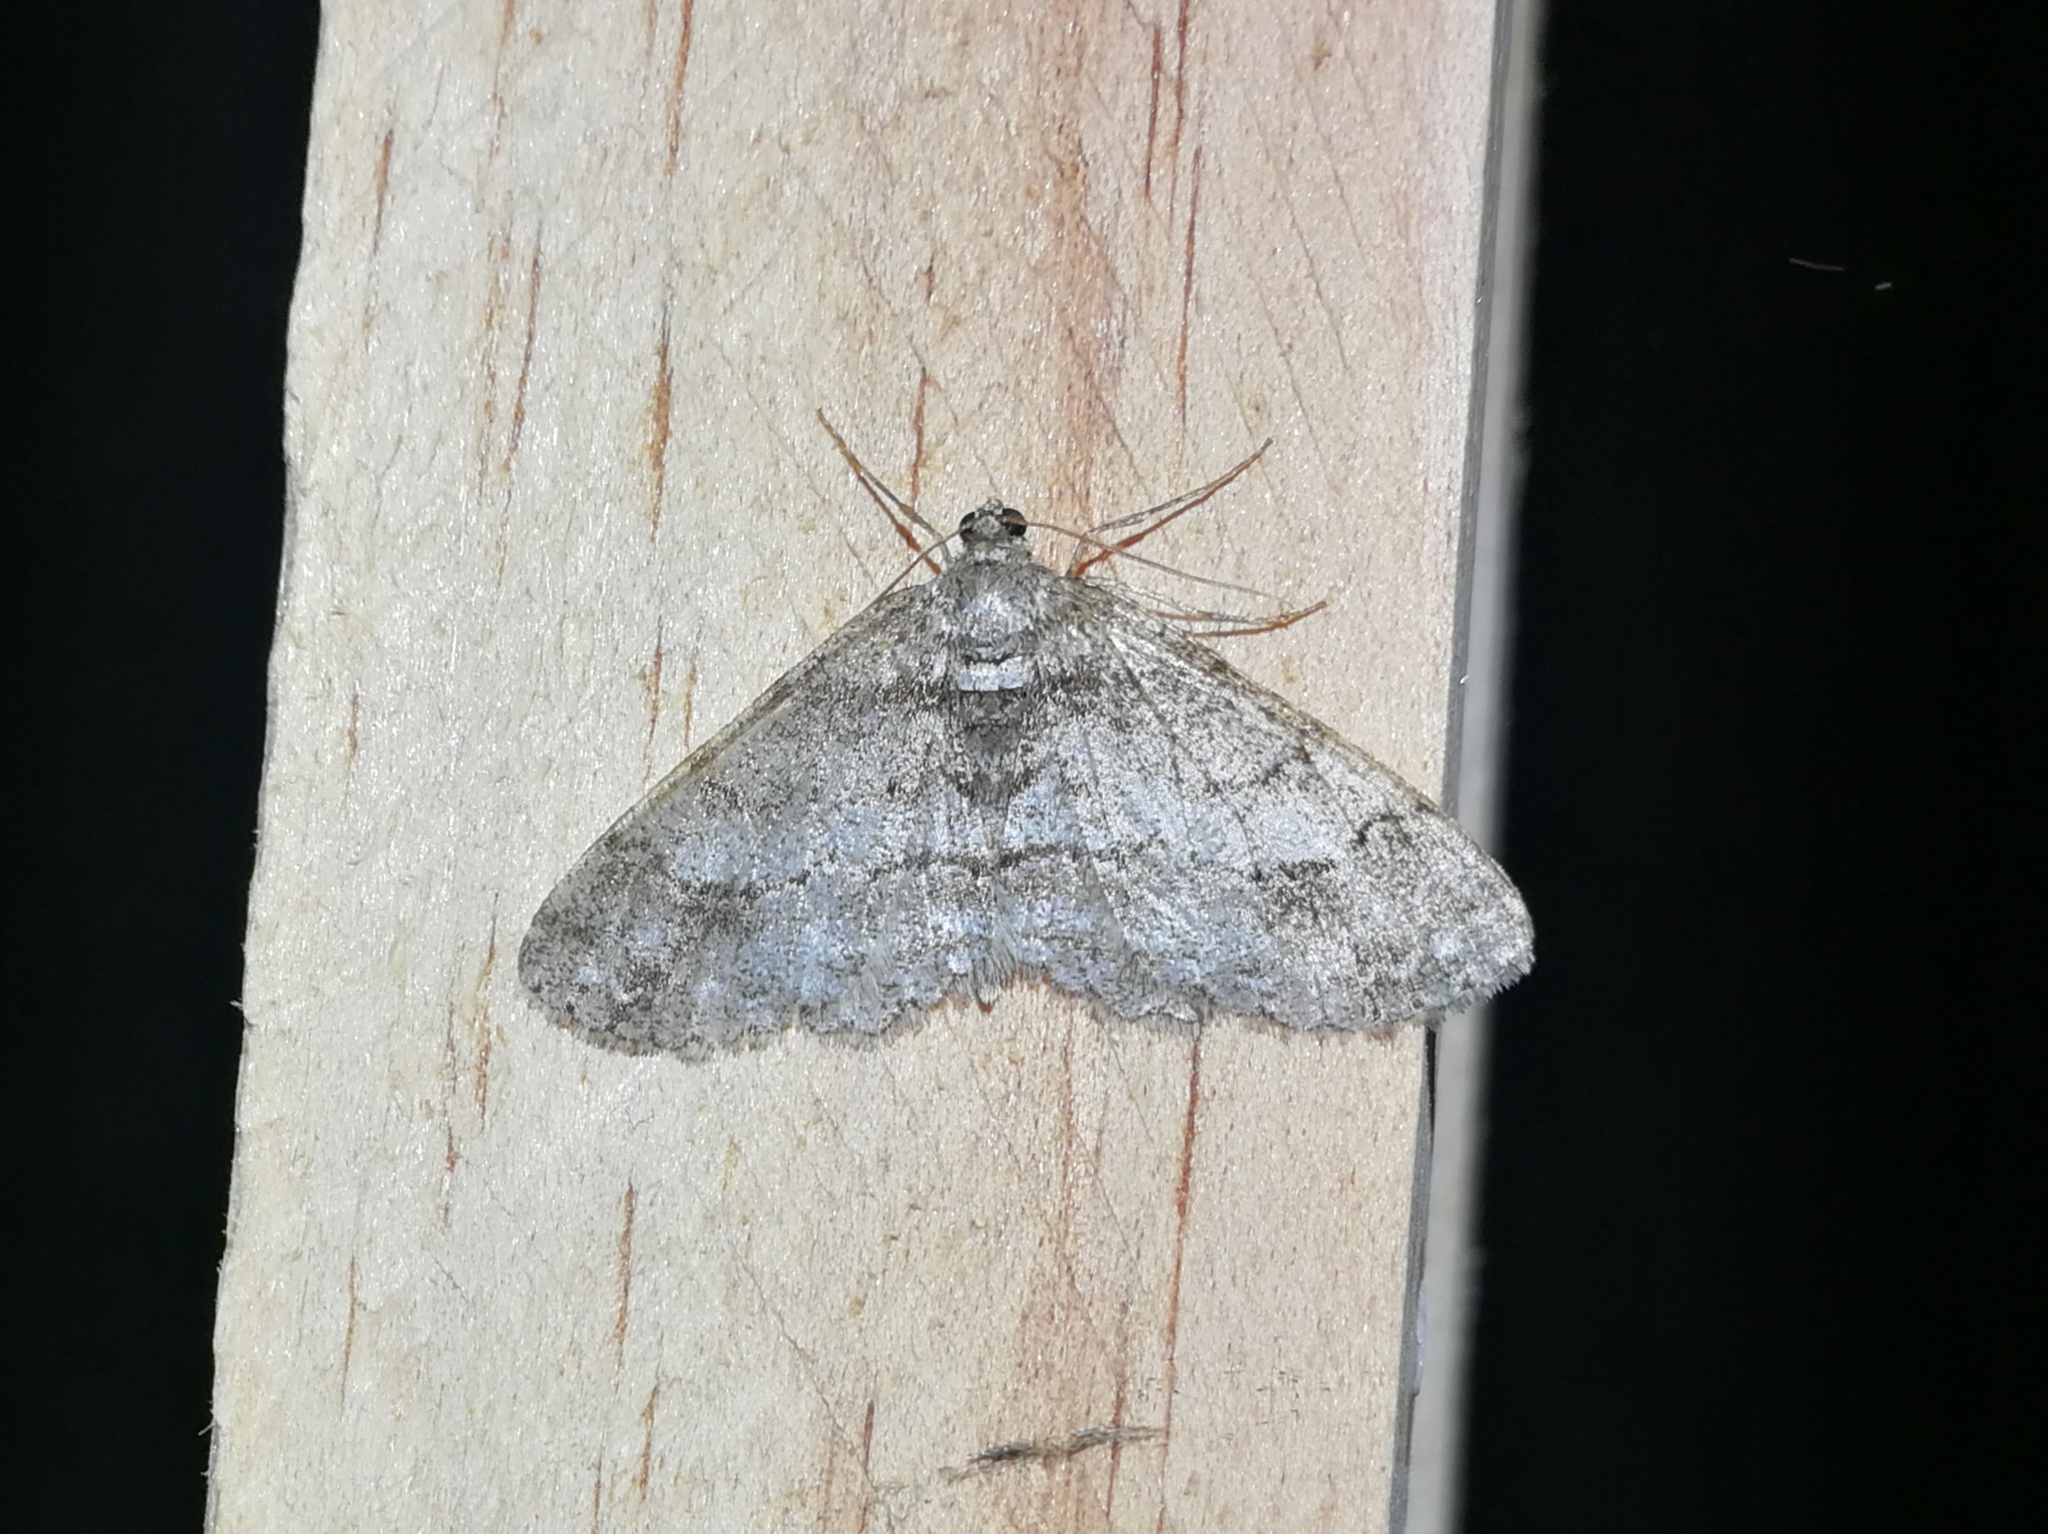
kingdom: Animalia
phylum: Arthropoda
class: Insecta
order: Lepidoptera
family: Geometridae
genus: Paradarisa
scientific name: Paradarisa consonaria
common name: Square spot
